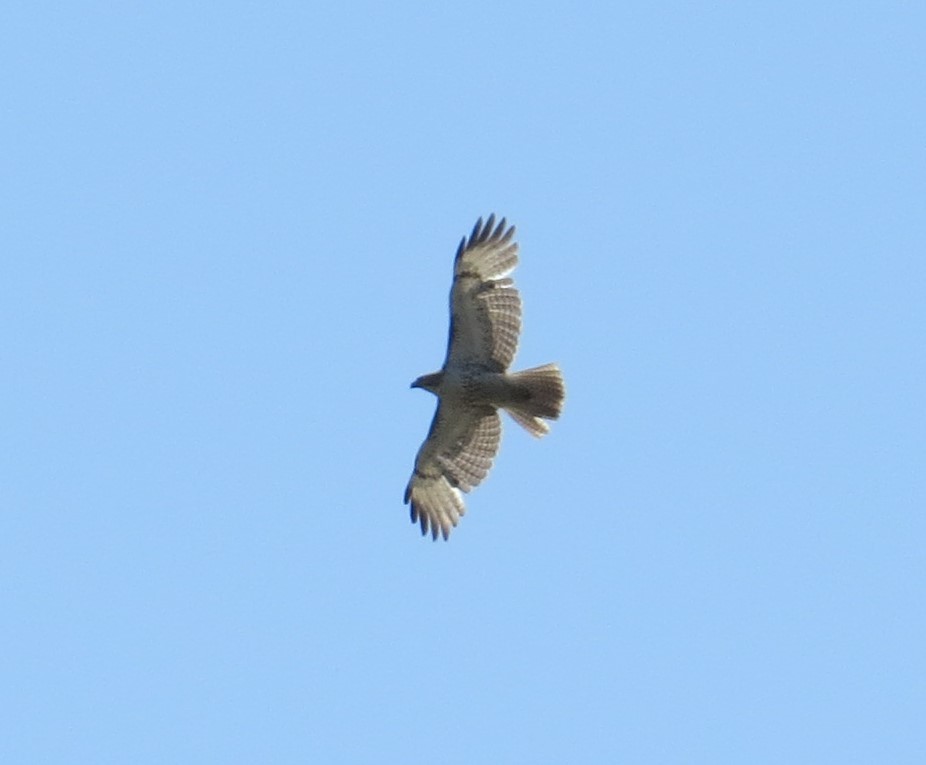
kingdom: Animalia
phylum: Chordata
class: Aves
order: Accipitriformes
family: Accipitridae
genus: Buteo
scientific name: Buteo jamaicensis
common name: Red-tailed hawk
